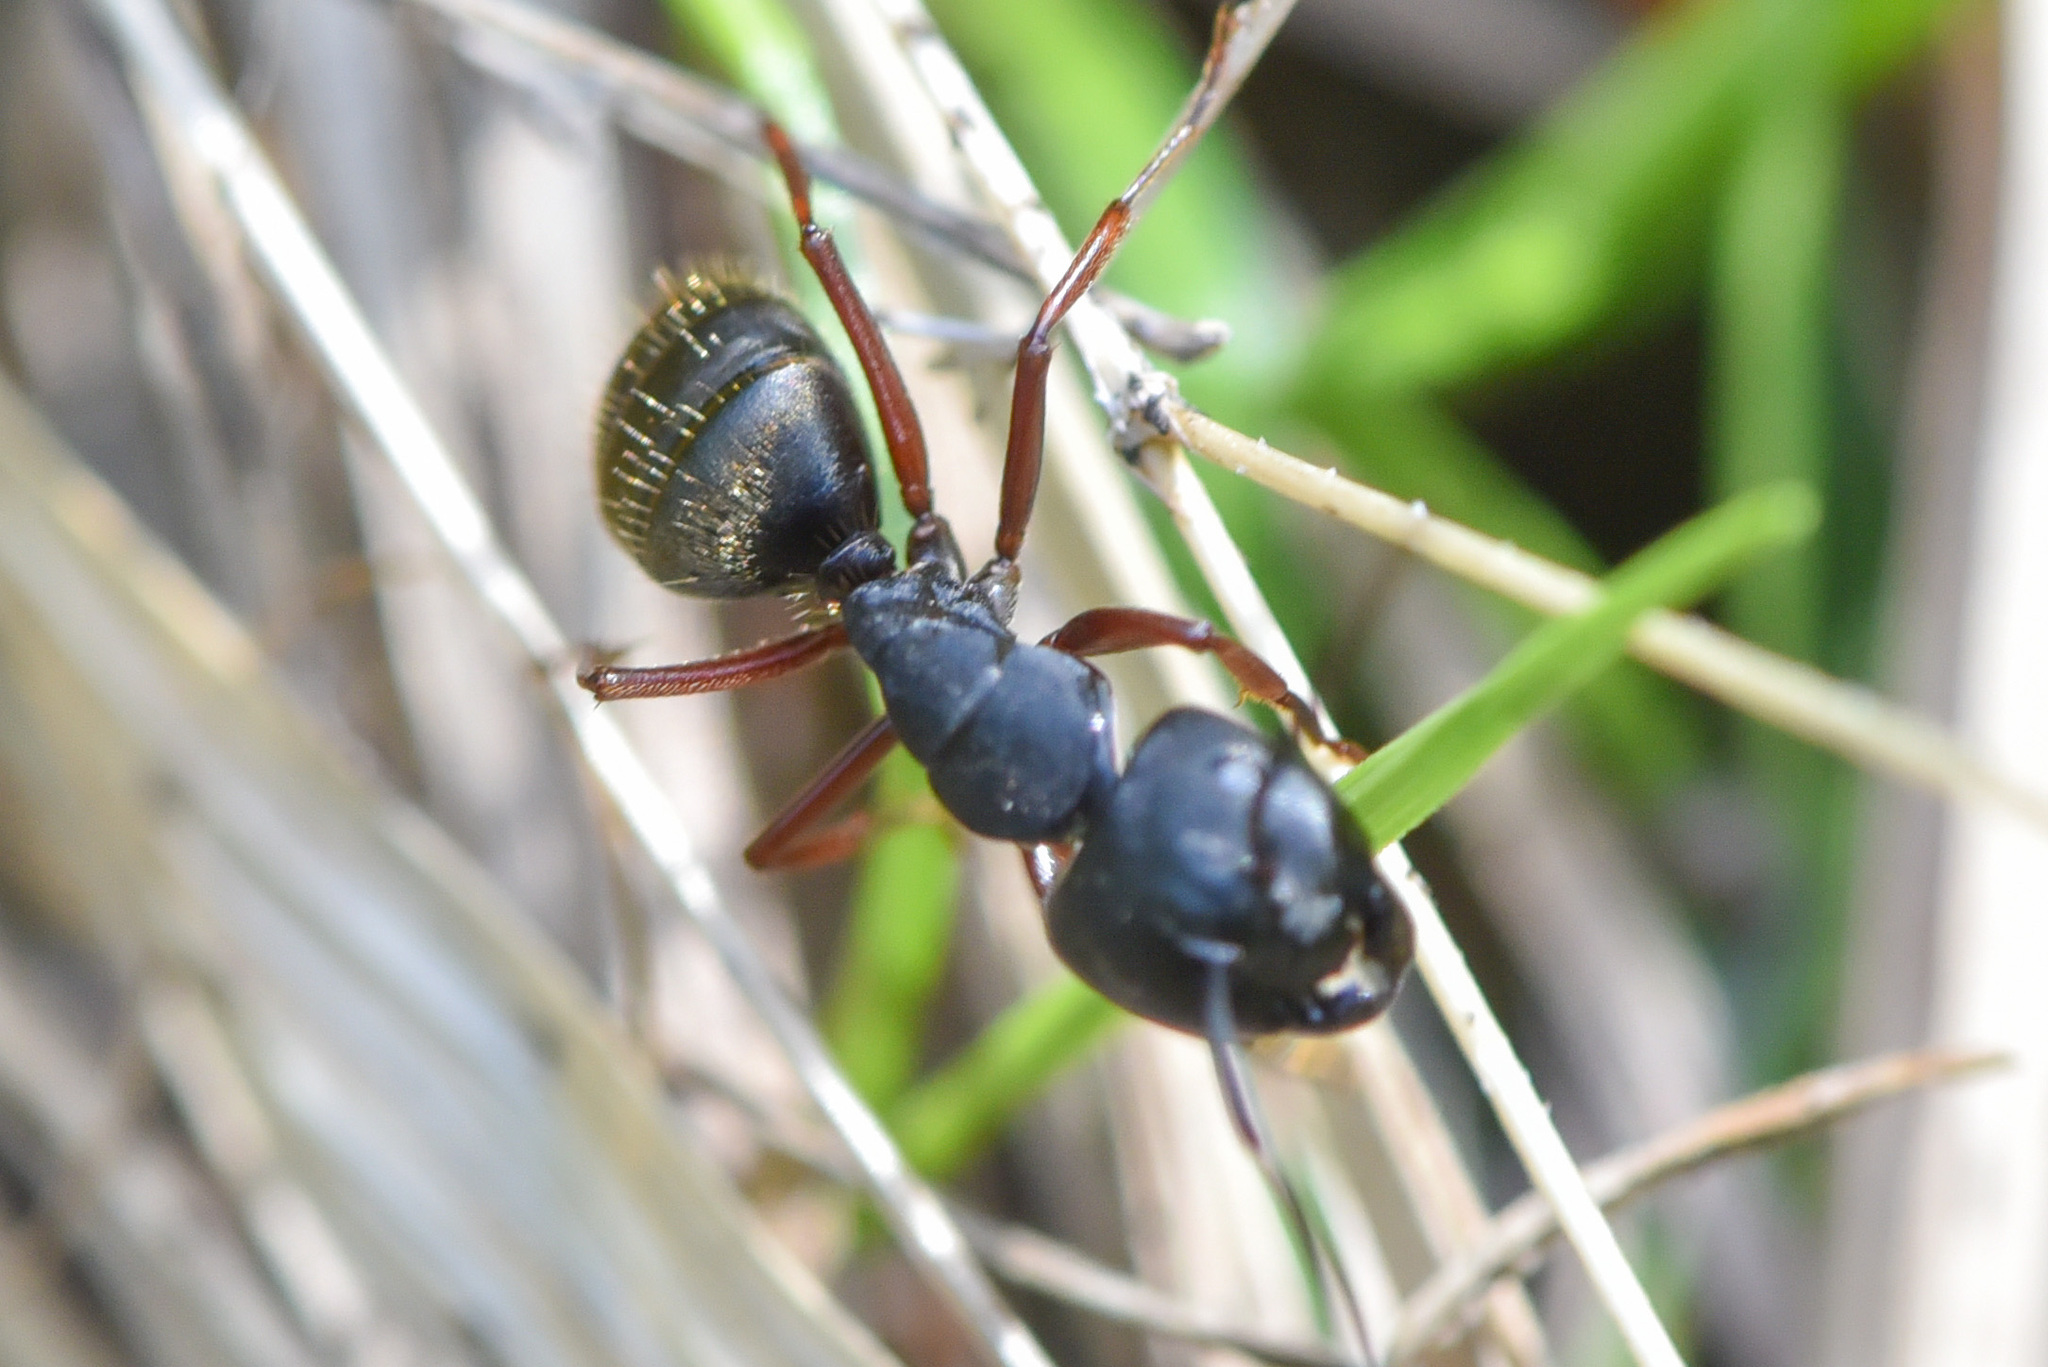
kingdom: Animalia
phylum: Arthropoda
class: Insecta
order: Hymenoptera
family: Formicidae
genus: Camponotus
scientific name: Camponotus modoc
